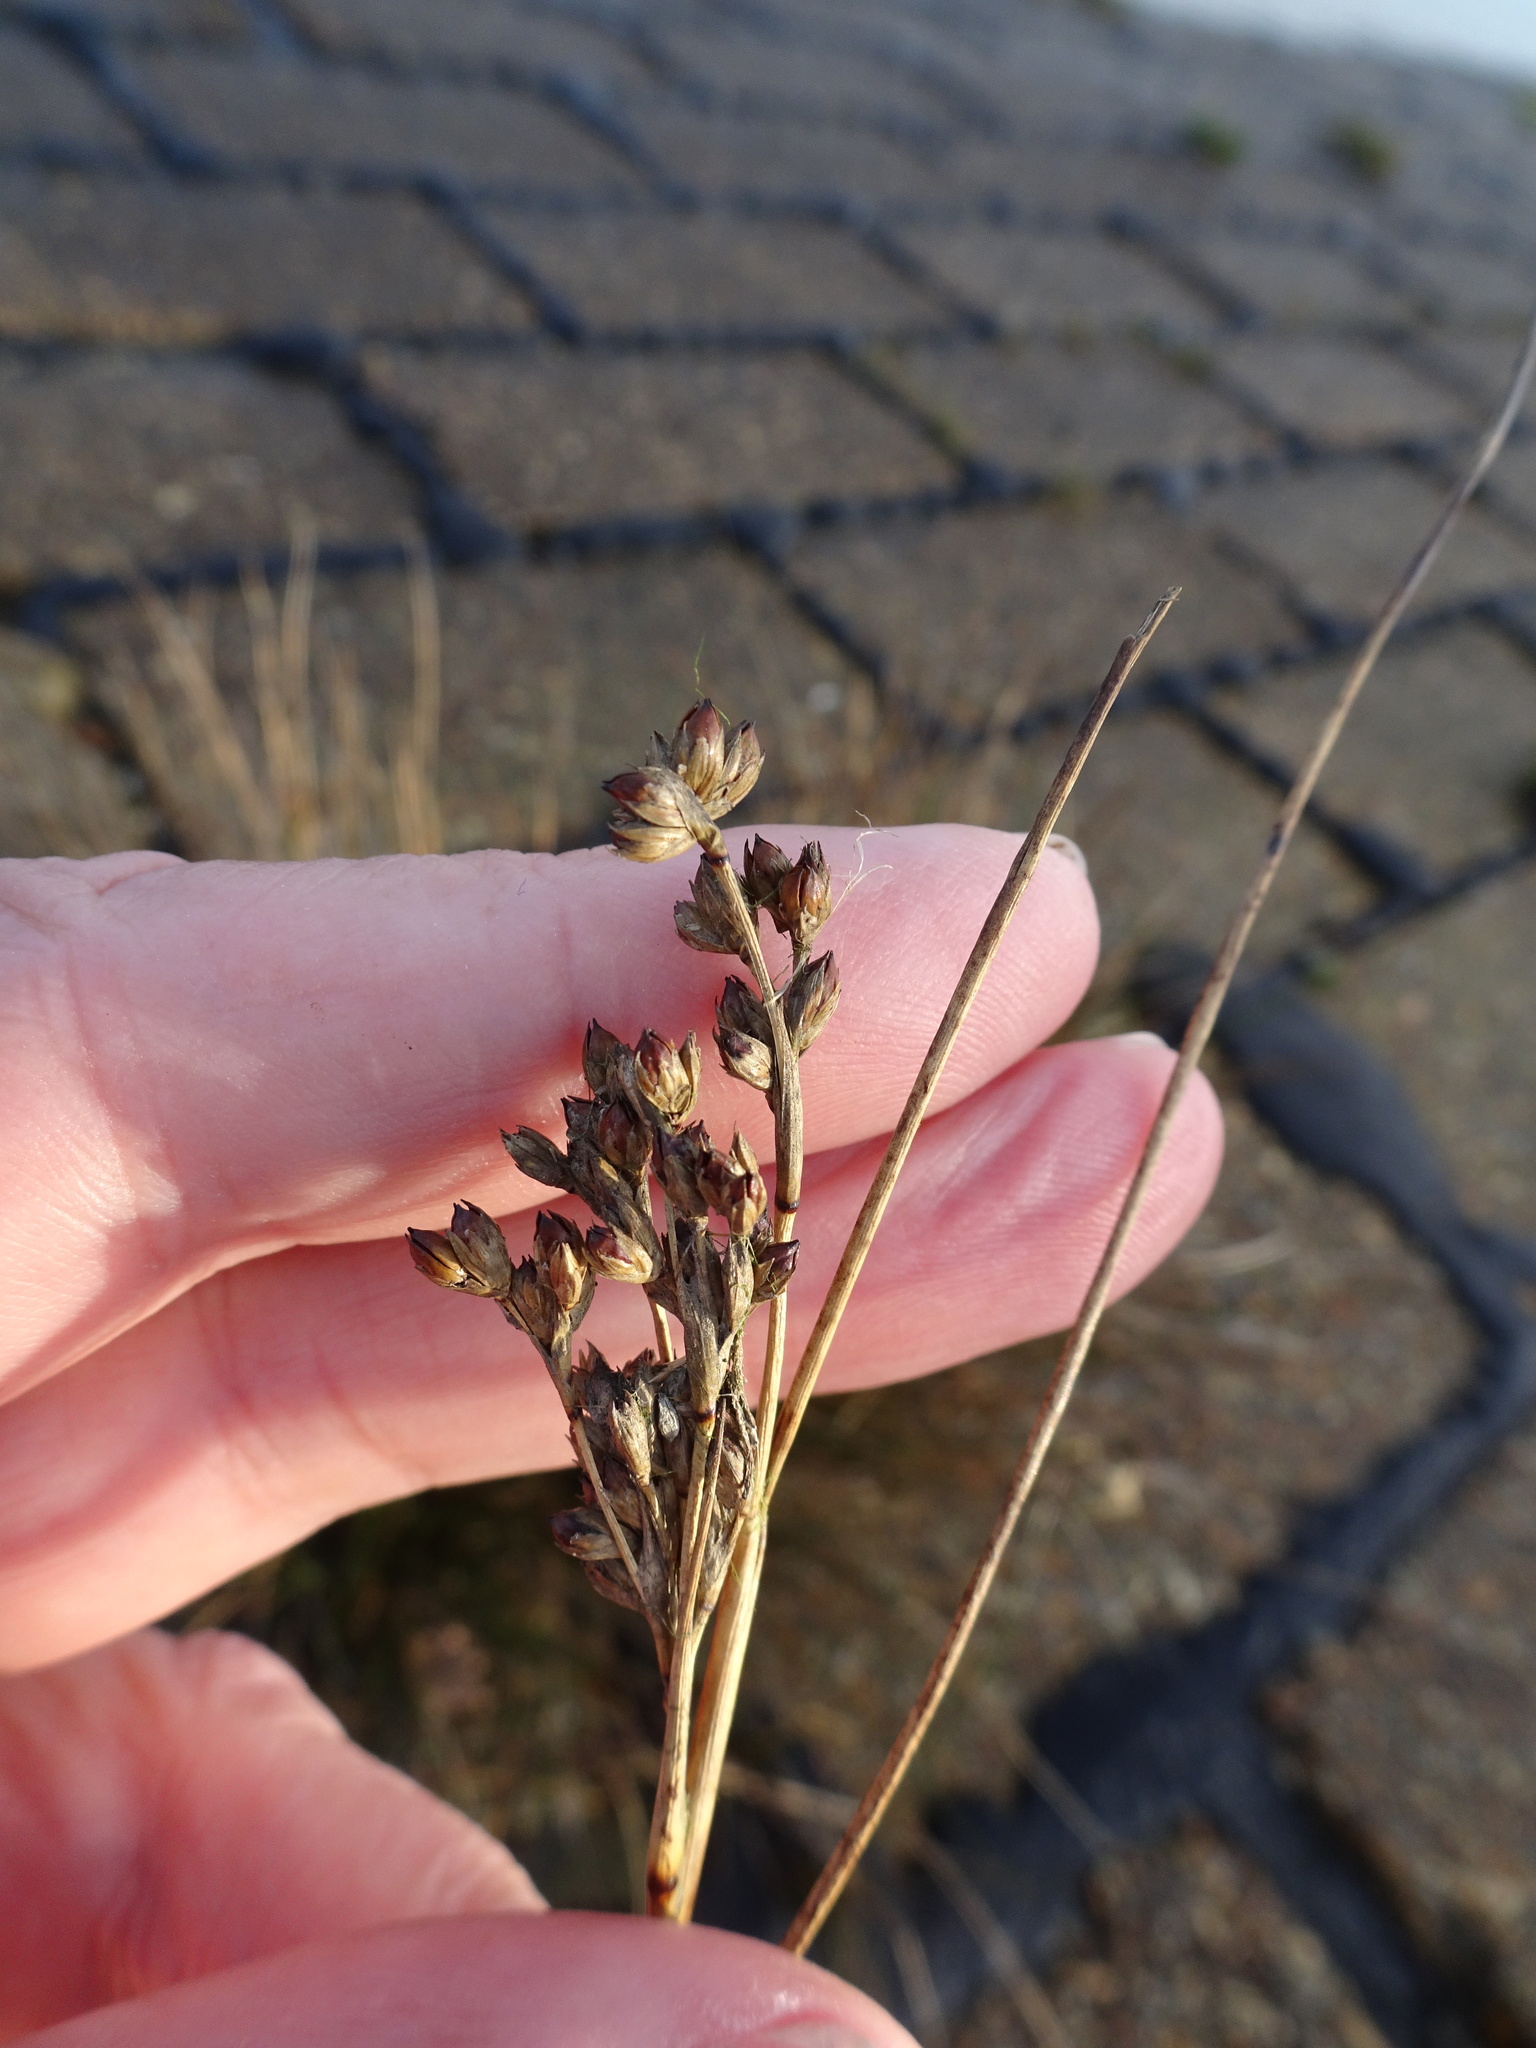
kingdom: Plantae
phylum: Tracheophyta
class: Liliopsida
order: Poales
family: Juncaceae
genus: Juncus
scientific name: Juncus maritimus
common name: Sea rush
